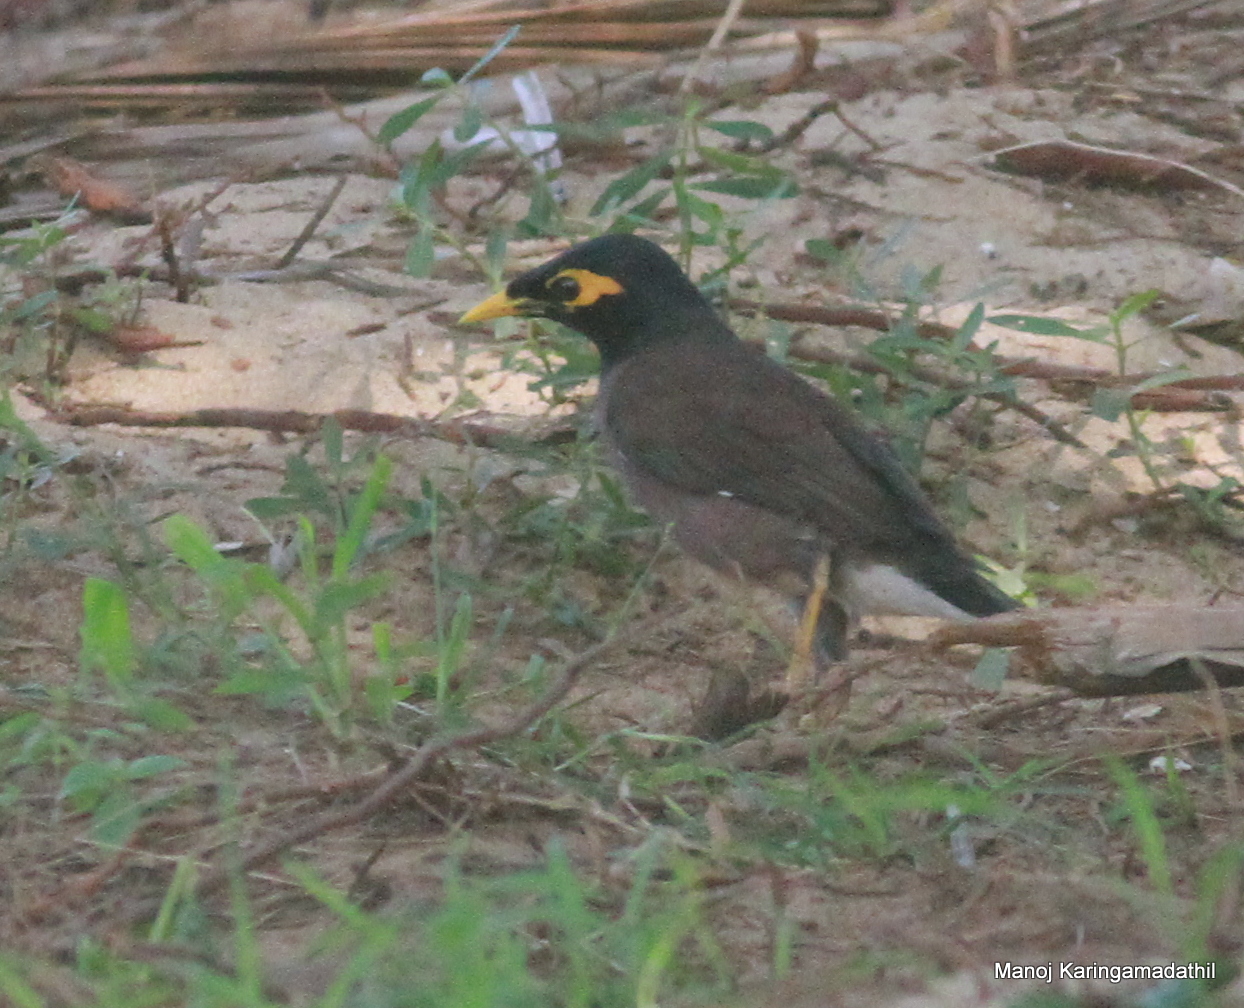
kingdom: Animalia
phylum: Chordata
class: Aves
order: Passeriformes
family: Sturnidae
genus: Acridotheres
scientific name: Acridotheres tristis
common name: Common myna
